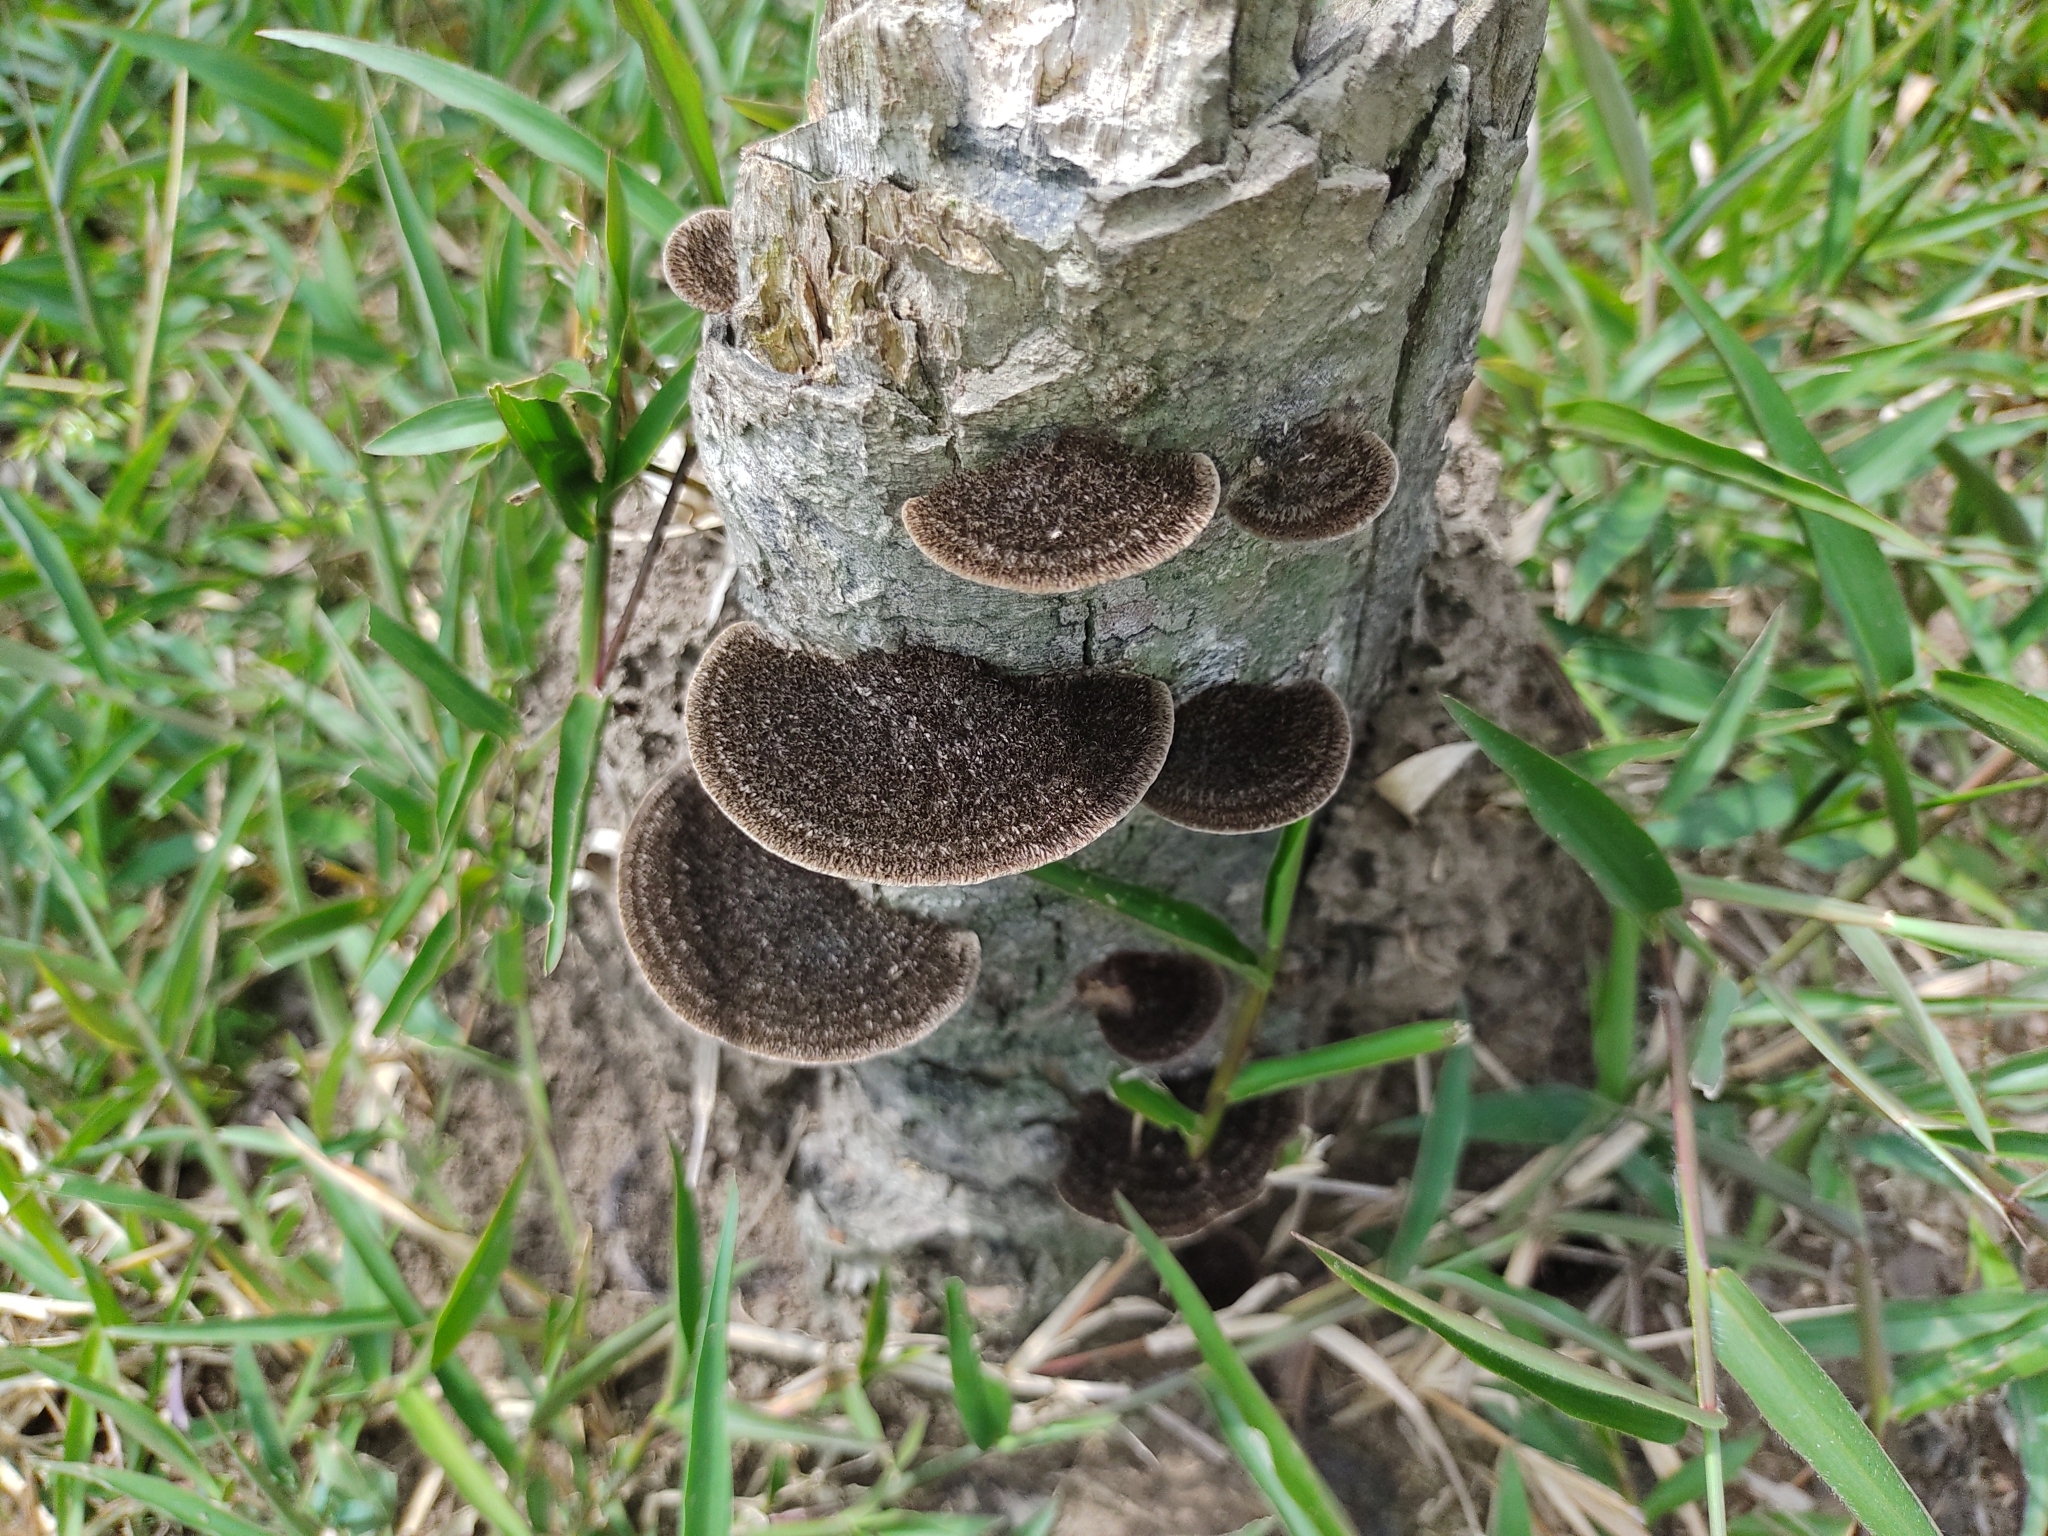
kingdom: Fungi
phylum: Basidiomycota
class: Agaricomycetes
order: Polyporales
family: Cerrenaceae
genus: Cerrena
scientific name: Cerrena hydnoides
